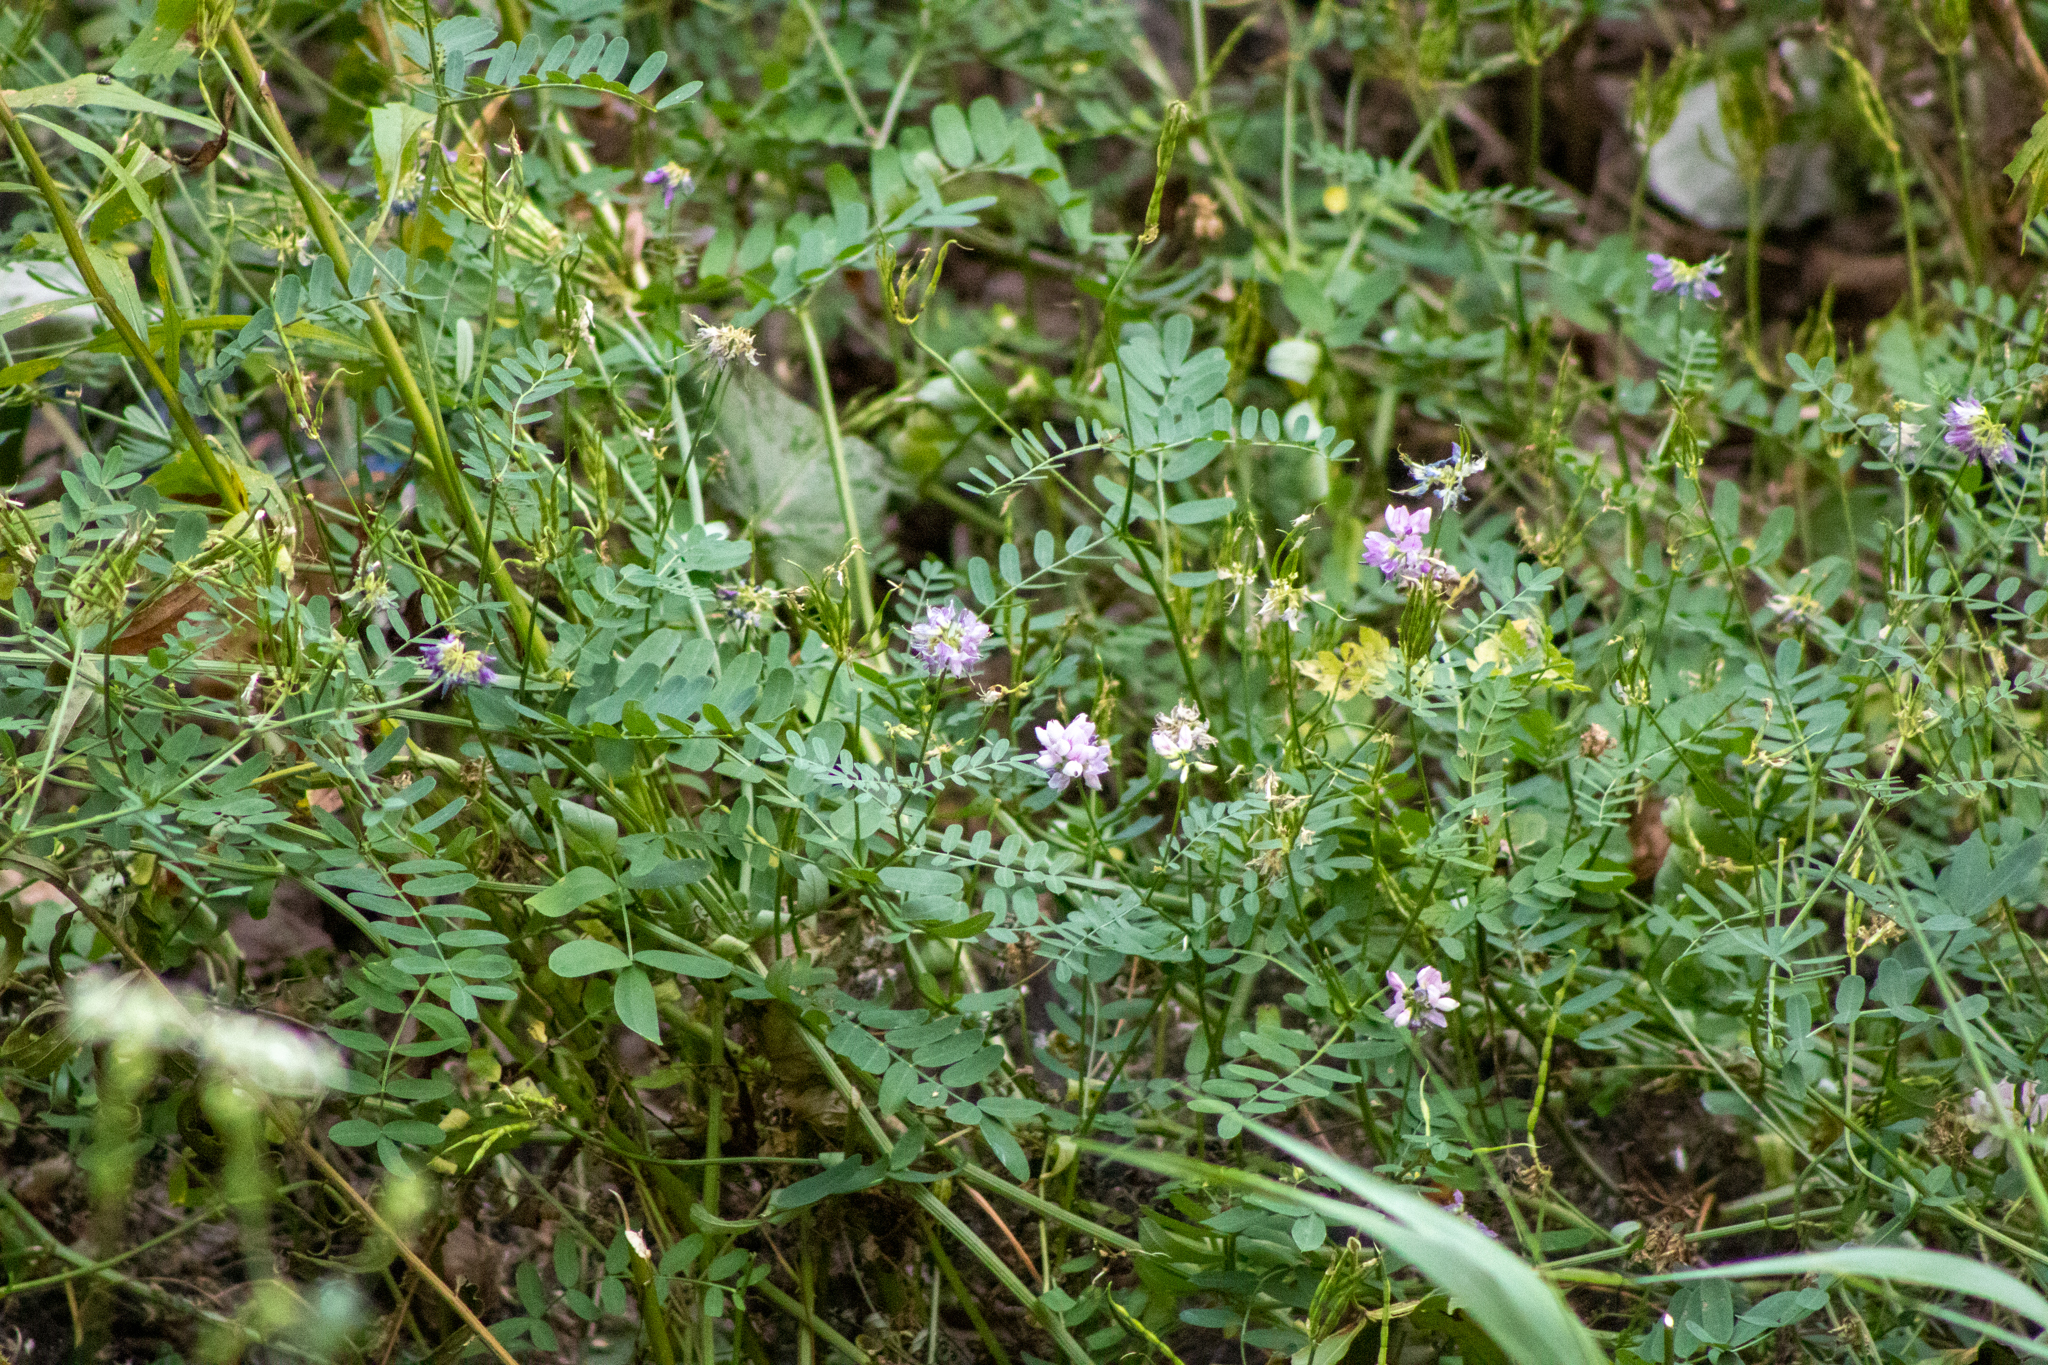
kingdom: Plantae
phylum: Tracheophyta
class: Magnoliopsida
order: Fabales
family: Fabaceae
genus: Coronilla
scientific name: Coronilla varia
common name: Crownvetch
